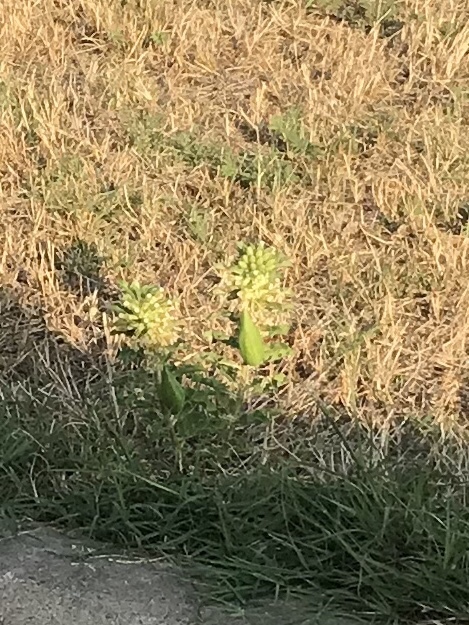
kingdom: Plantae
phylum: Tracheophyta
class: Magnoliopsida
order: Gentianales
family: Apocynaceae
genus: Asclepias
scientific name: Asclepias oenotheroides
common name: Zizotes milkweed
